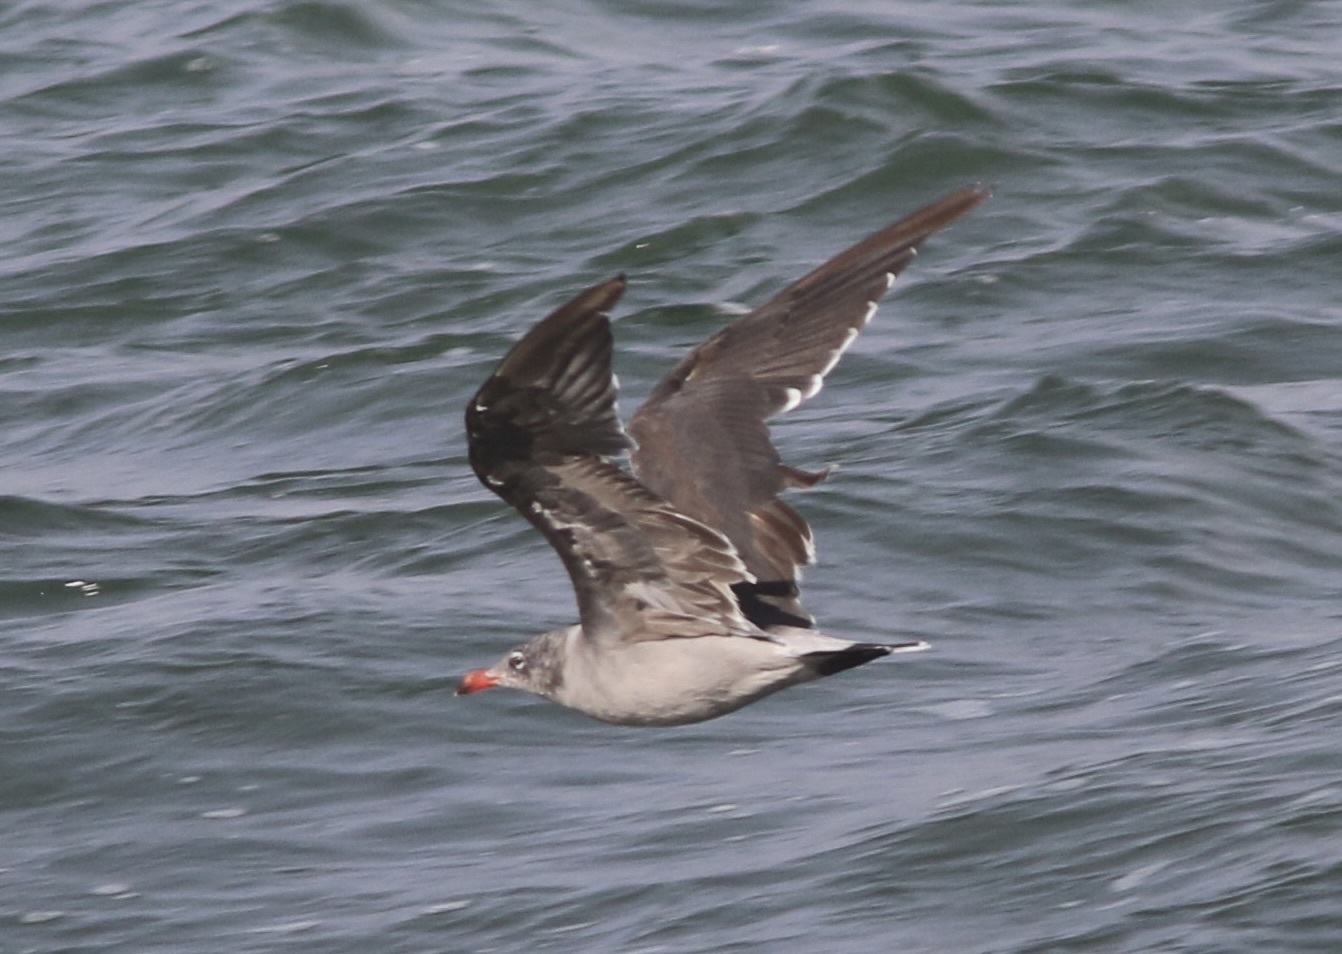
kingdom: Animalia
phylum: Chordata
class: Aves
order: Charadriiformes
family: Laridae
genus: Larus
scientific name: Larus heermanni
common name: Heermann's gull
